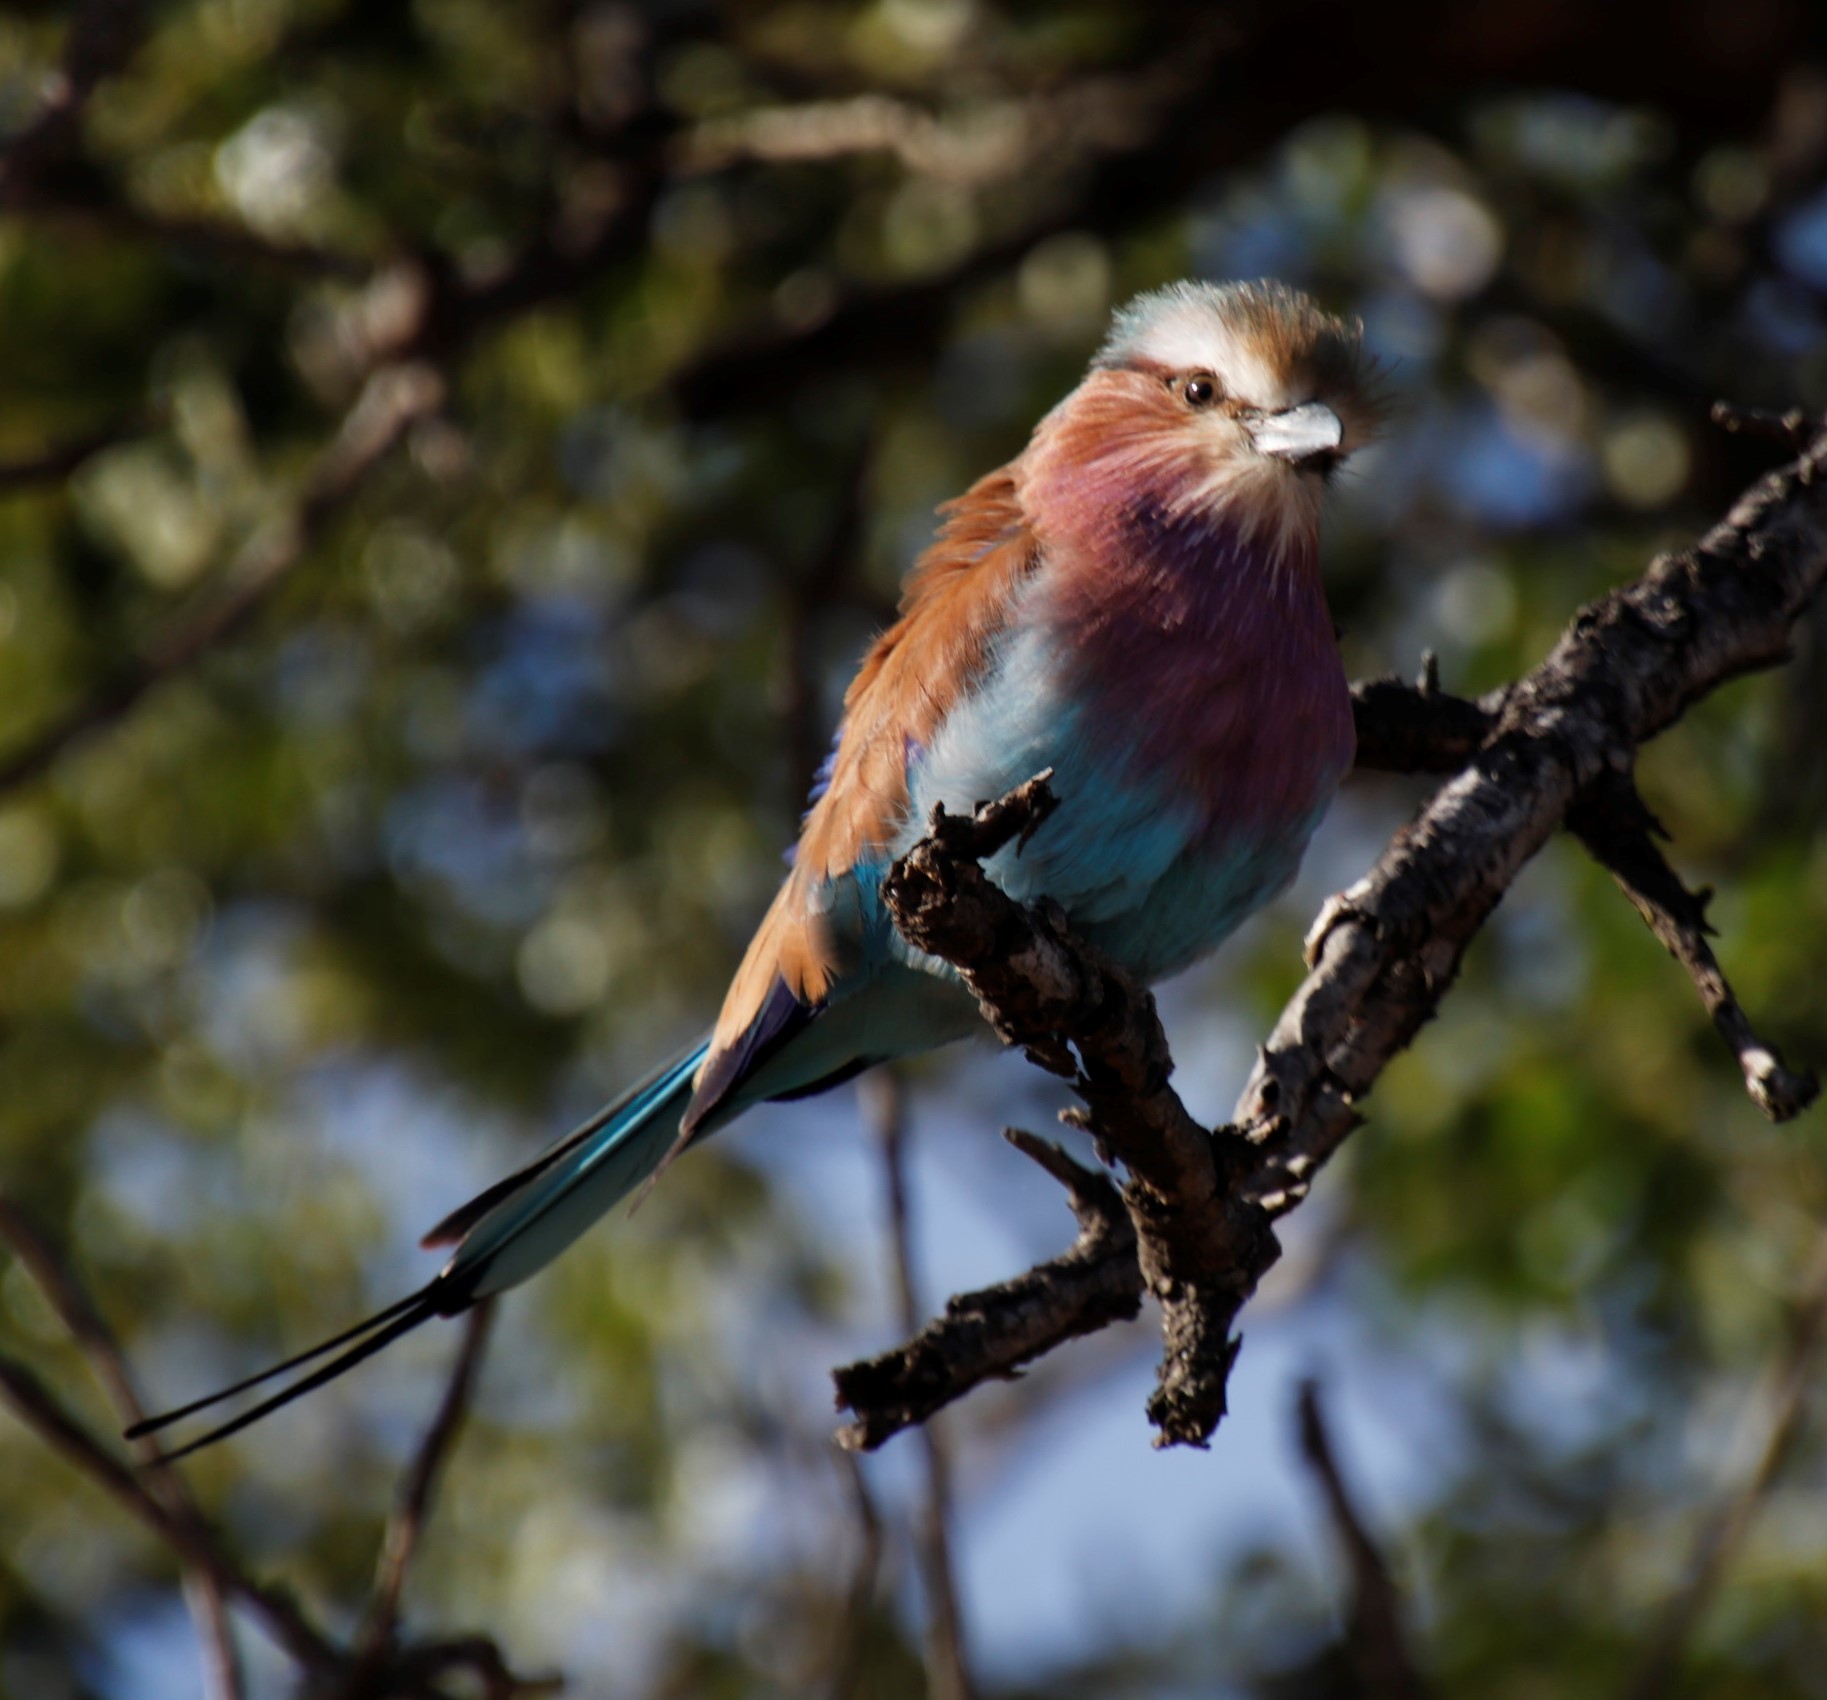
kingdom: Animalia
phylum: Chordata
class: Aves
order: Coraciiformes
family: Coraciidae
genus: Coracias
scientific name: Coracias caudatus
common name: Lilac-breasted roller
